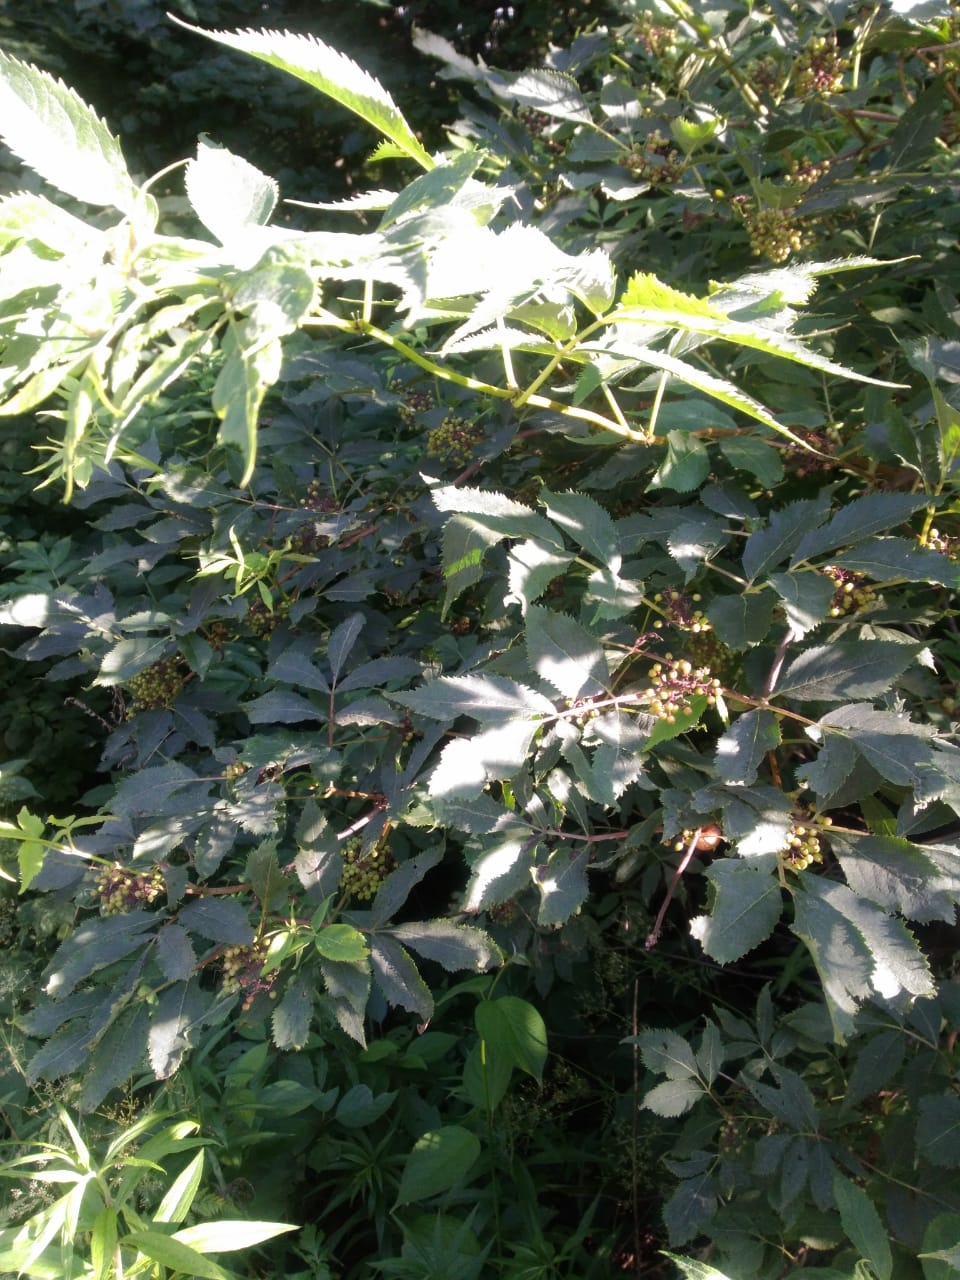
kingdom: Plantae
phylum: Tracheophyta
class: Magnoliopsida
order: Dipsacales
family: Viburnaceae
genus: Sambucus
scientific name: Sambucus nigra
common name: Elder
